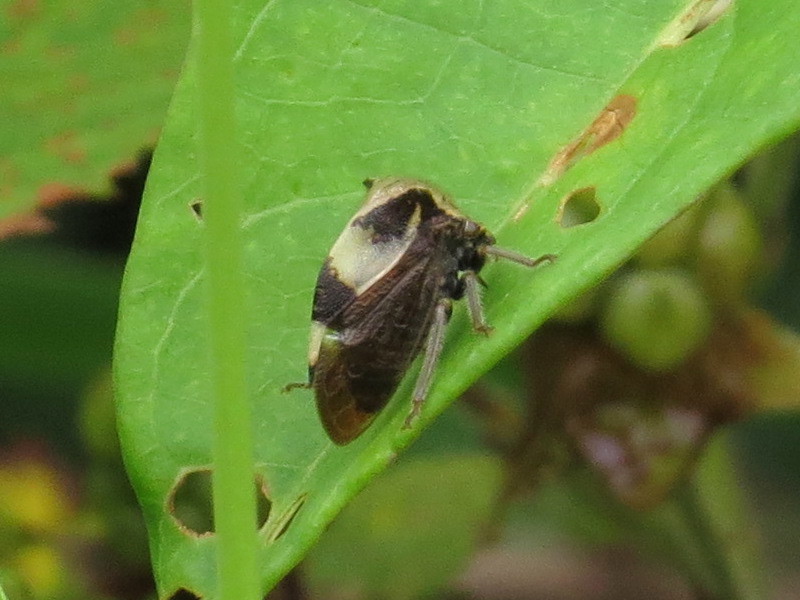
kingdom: Animalia
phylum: Arthropoda
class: Insecta
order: Hemiptera
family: Membracidae
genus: Stictocephala
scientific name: Stictocephala diceros
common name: Two-horned treehopper
